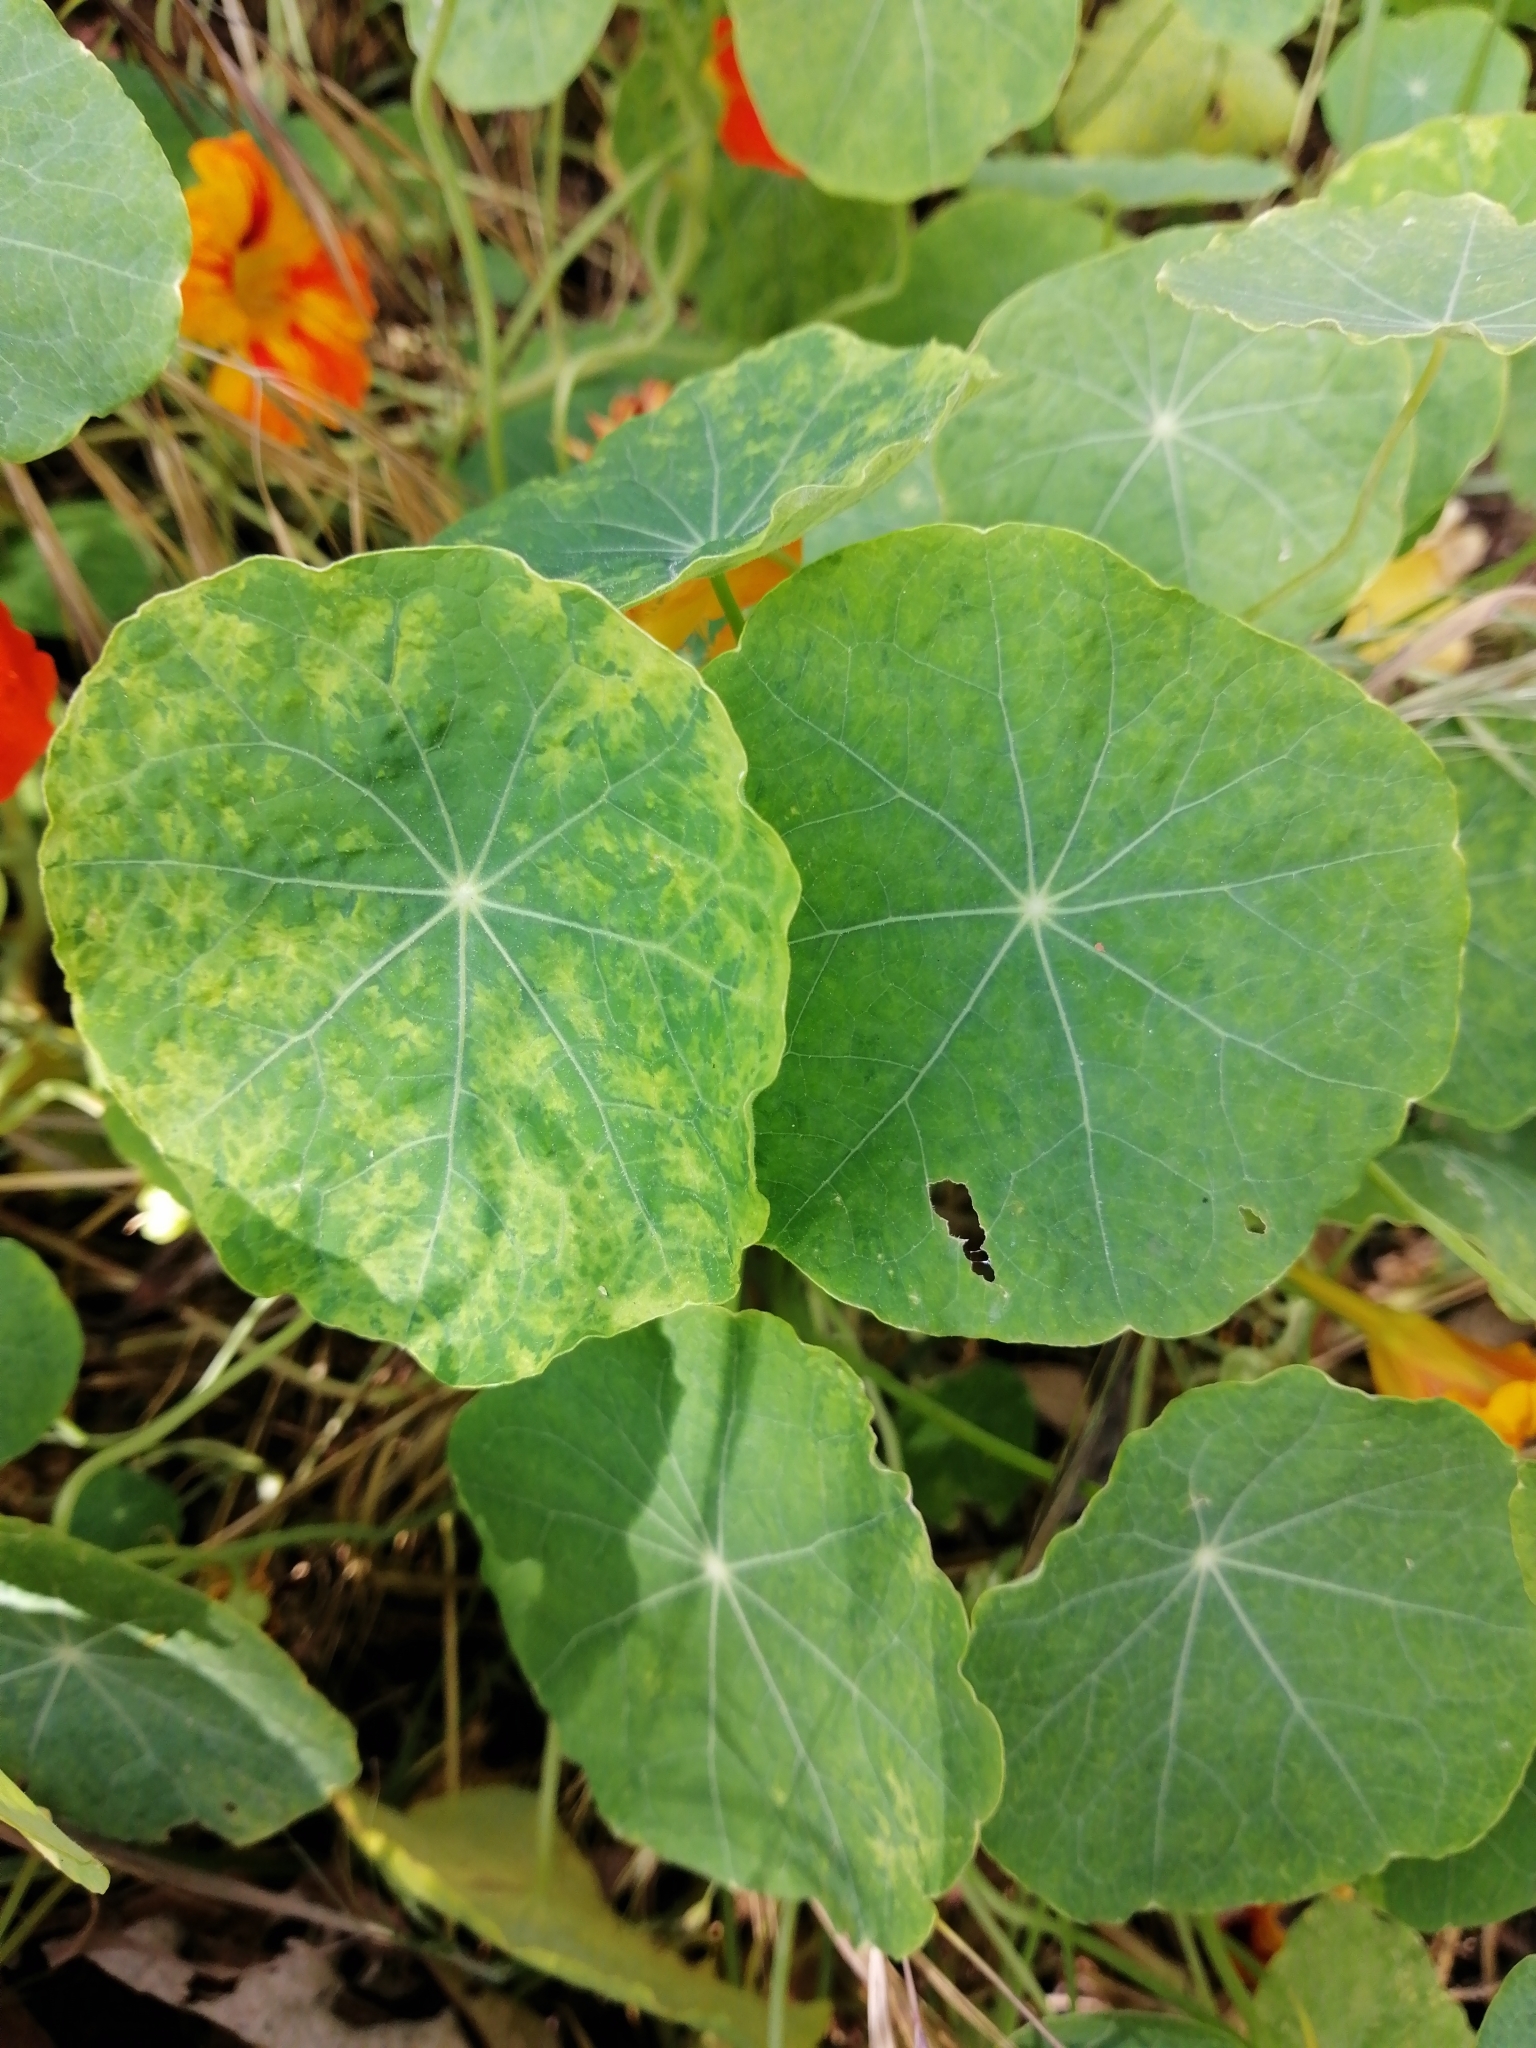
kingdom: Plantae
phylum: Tracheophyta
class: Magnoliopsida
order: Brassicales
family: Tropaeolaceae
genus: Tropaeolum
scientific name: Tropaeolum majus
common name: Nasturtium
